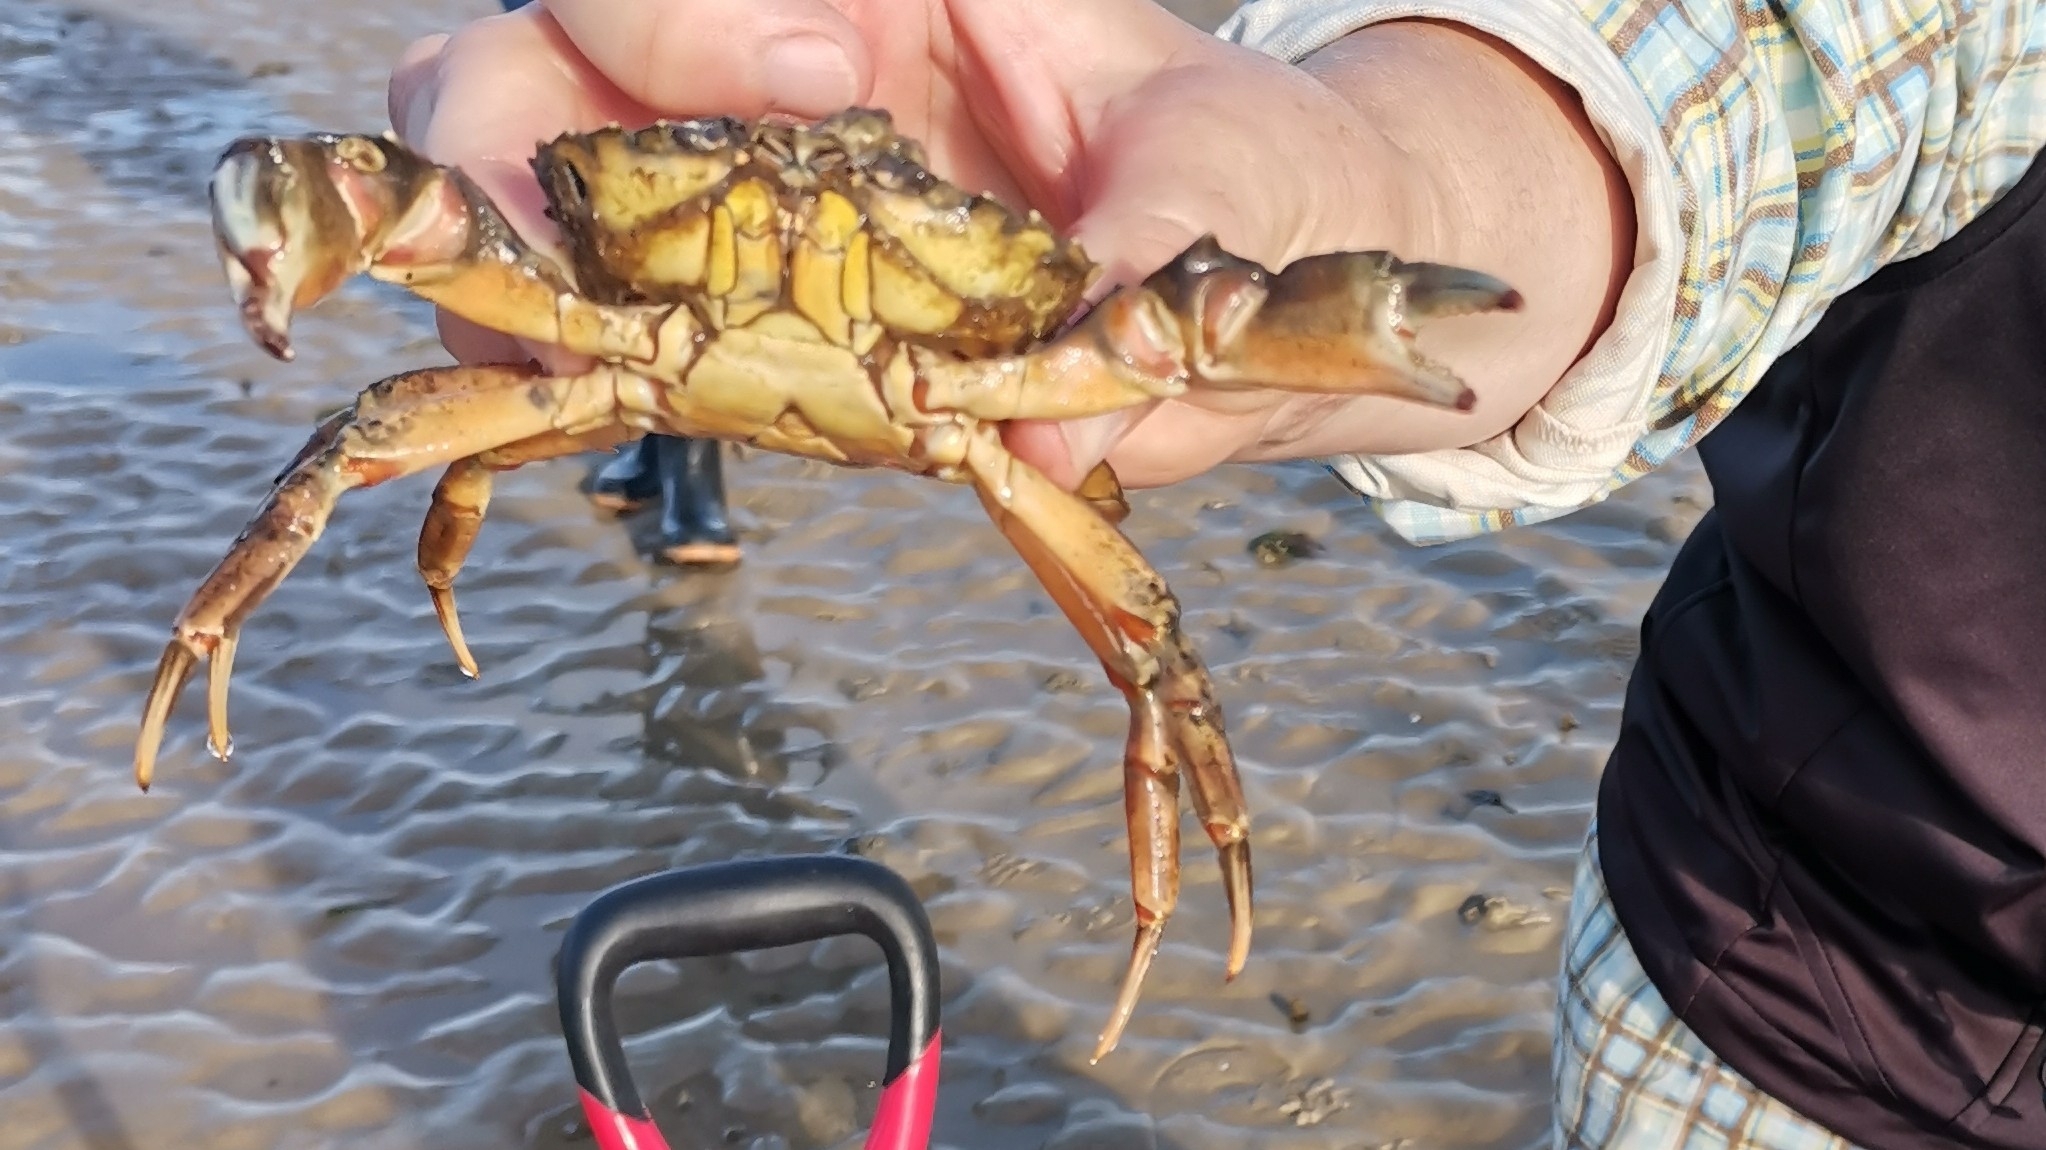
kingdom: Animalia
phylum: Arthropoda
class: Malacostraca
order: Decapoda
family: Carcinidae
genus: Carcinus
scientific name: Carcinus maenas
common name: European green crab
